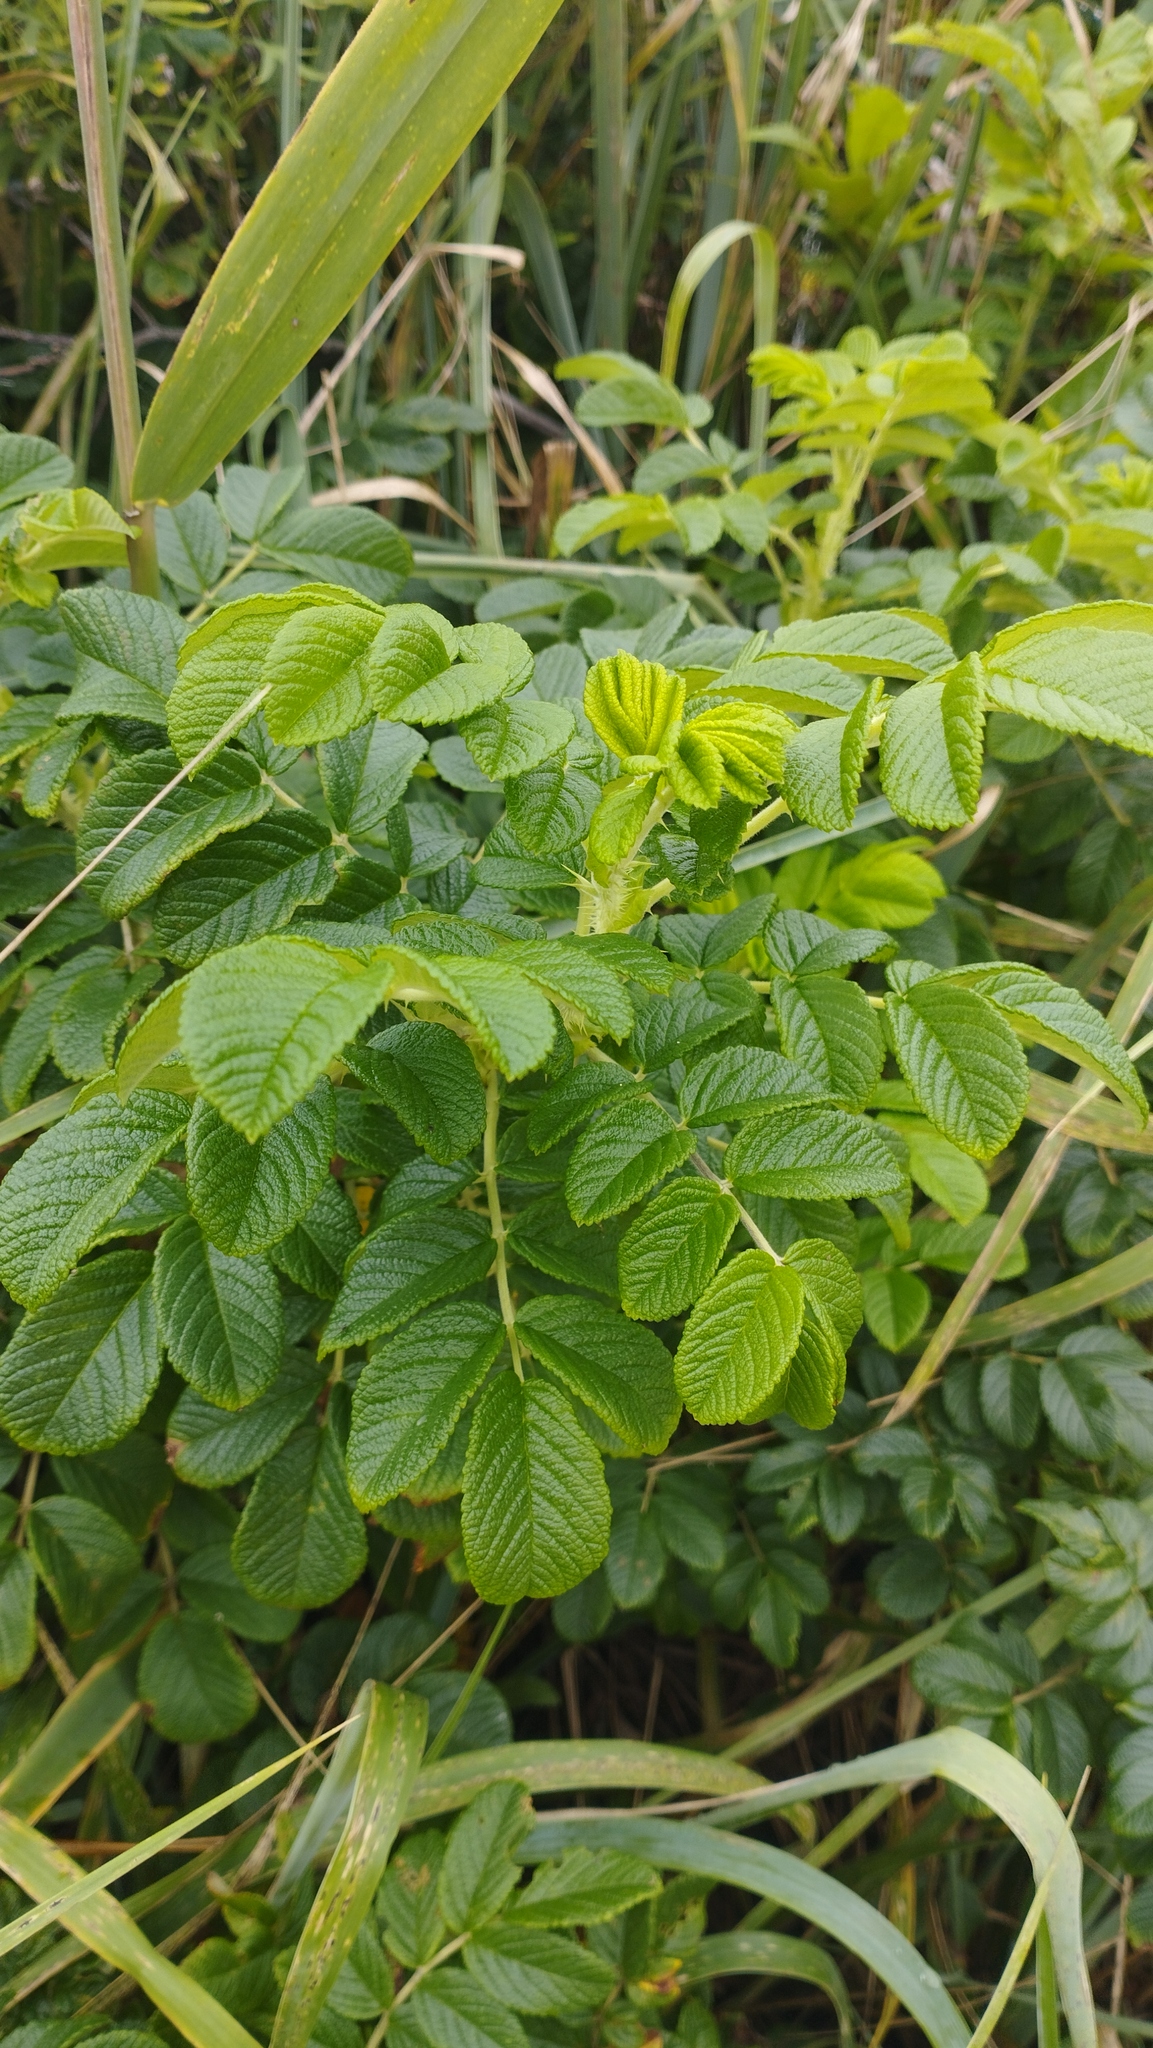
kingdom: Plantae
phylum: Tracheophyta
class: Magnoliopsida
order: Rosales
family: Rosaceae
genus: Rosa
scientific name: Rosa rugosa
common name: Japanese rose
